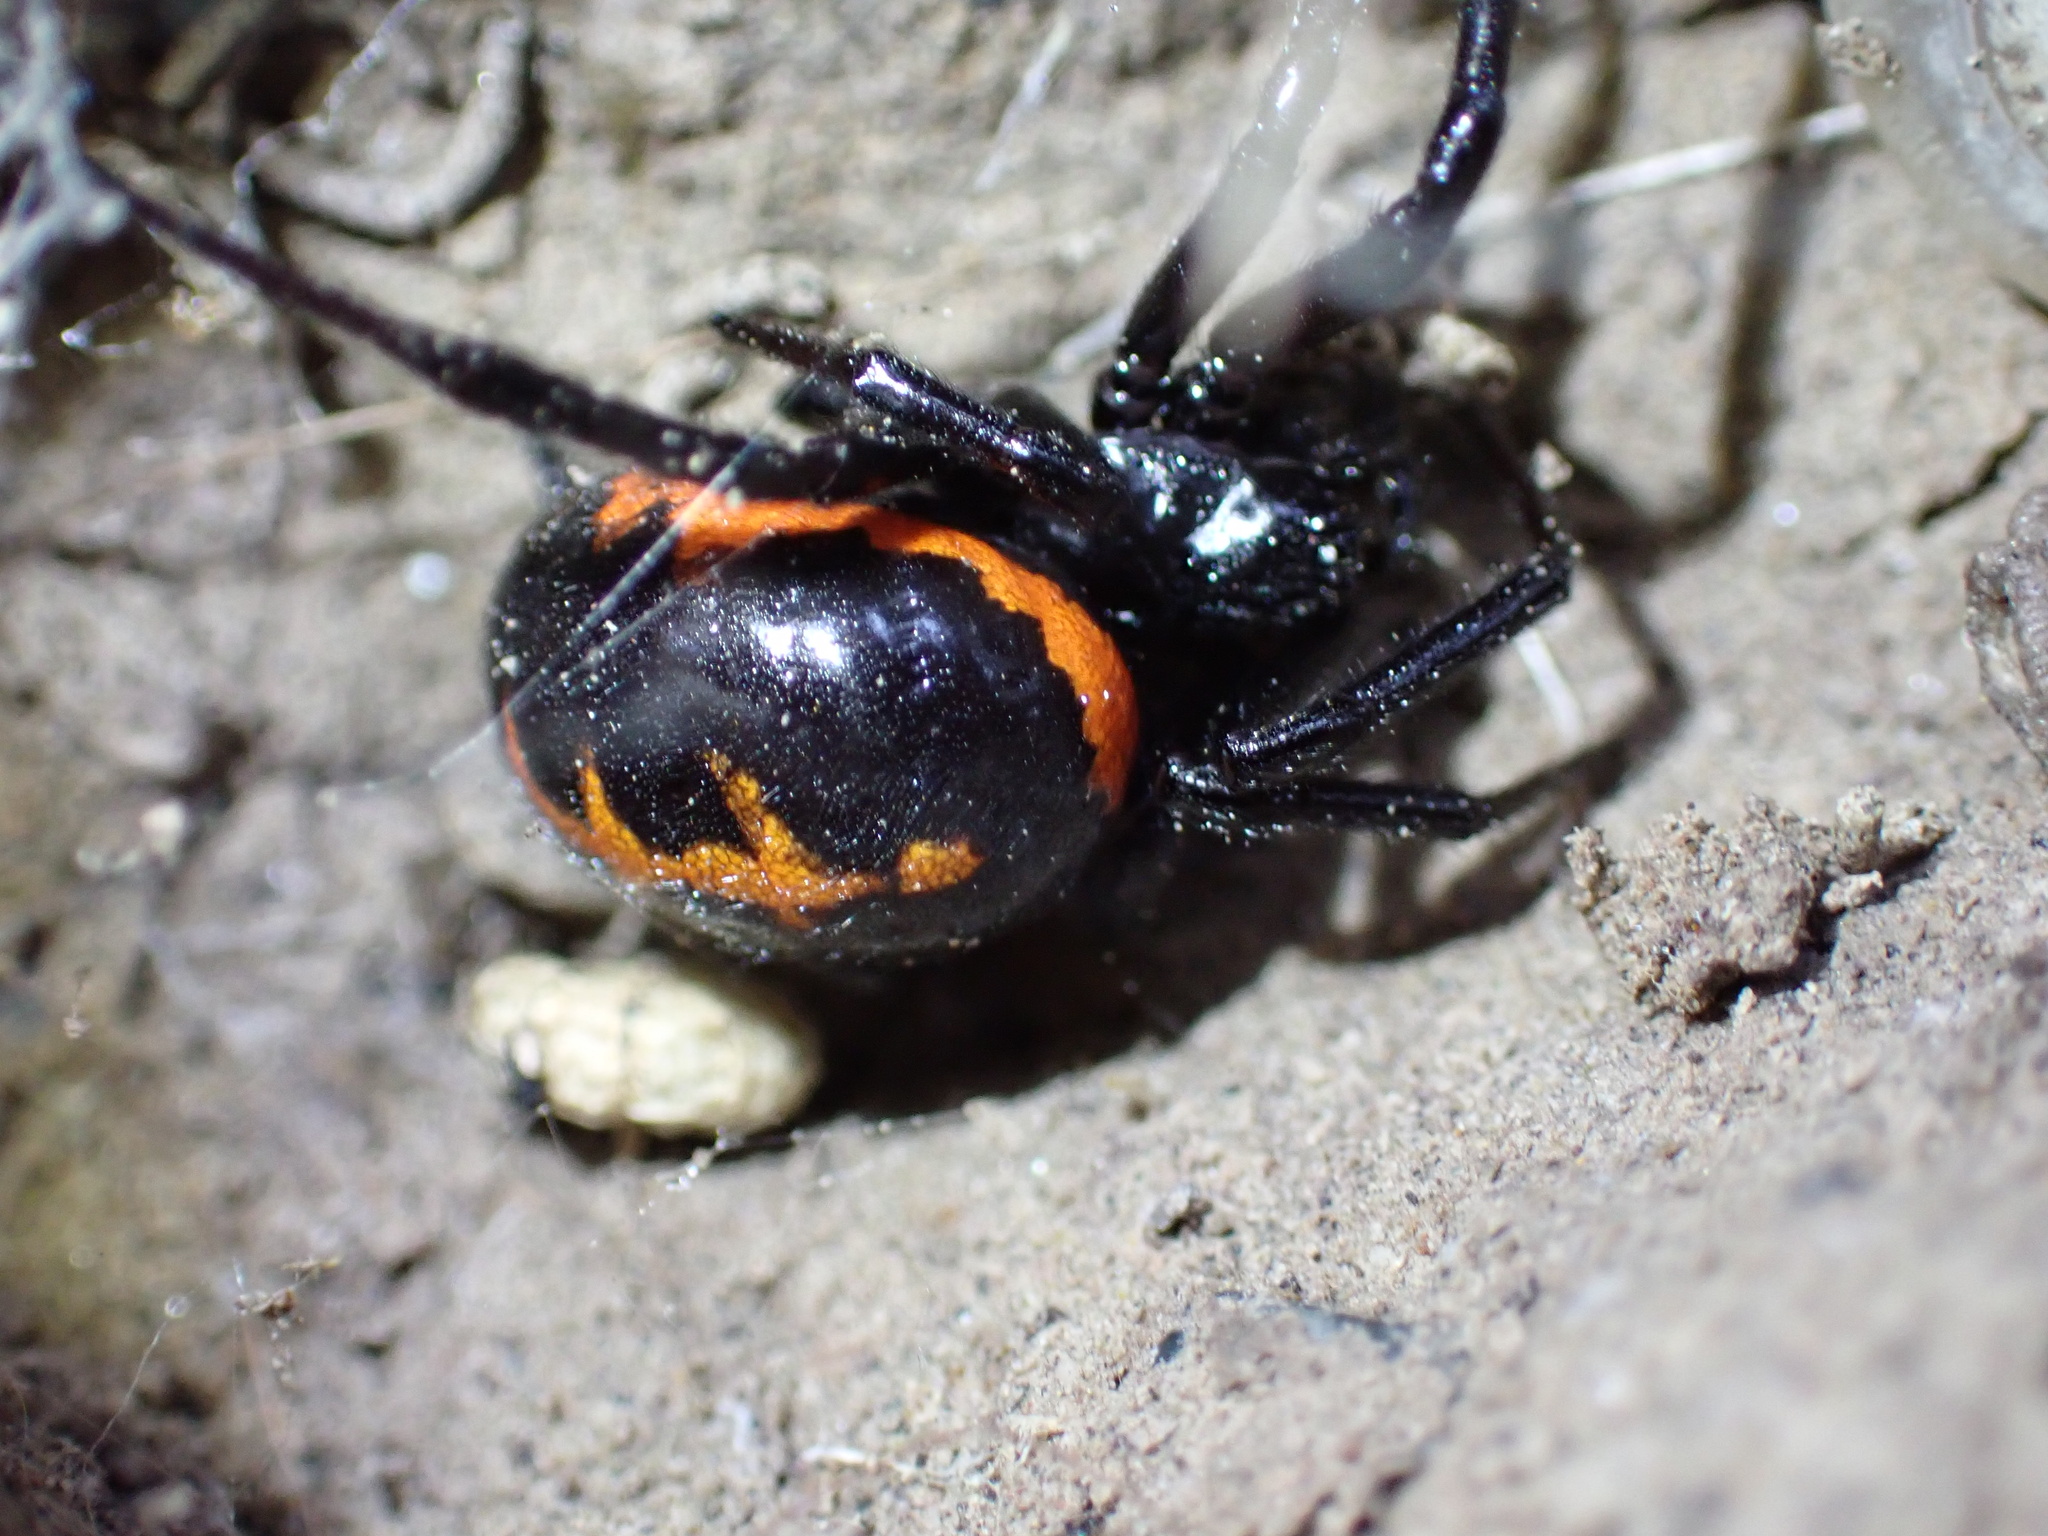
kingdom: Animalia
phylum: Arthropoda
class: Arachnida
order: Araneae
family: Theridiidae
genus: Steatoda
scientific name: Steatoda paykulliana
